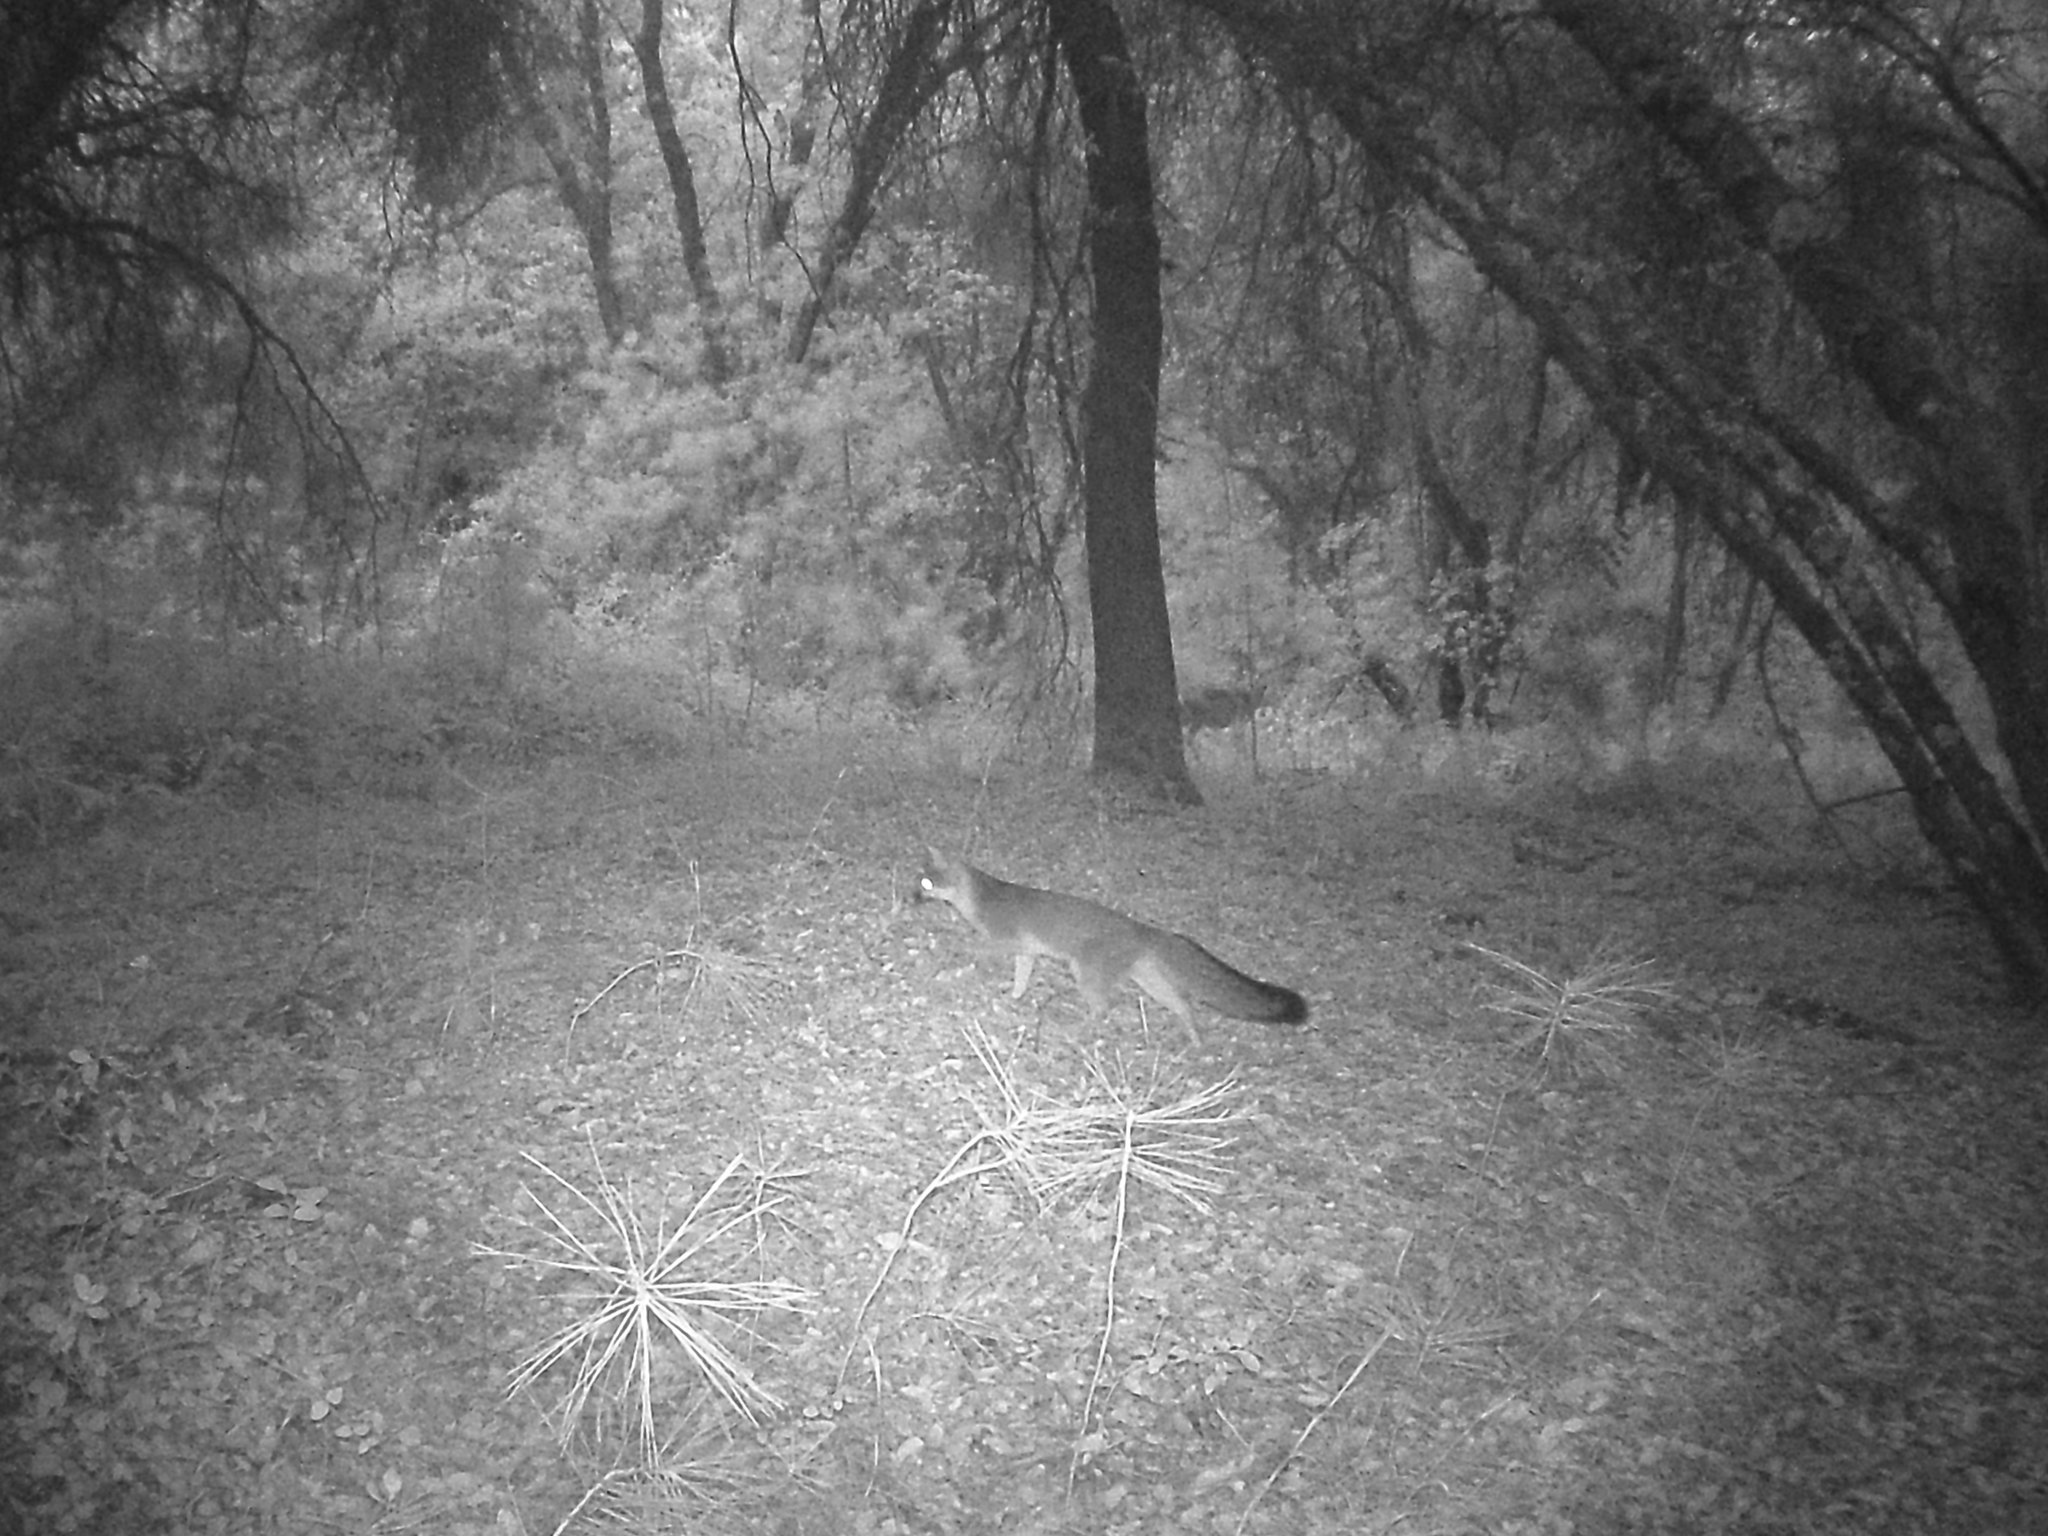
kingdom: Animalia
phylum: Chordata
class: Mammalia
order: Carnivora
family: Canidae
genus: Urocyon
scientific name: Urocyon cinereoargenteus
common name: Gray fox
